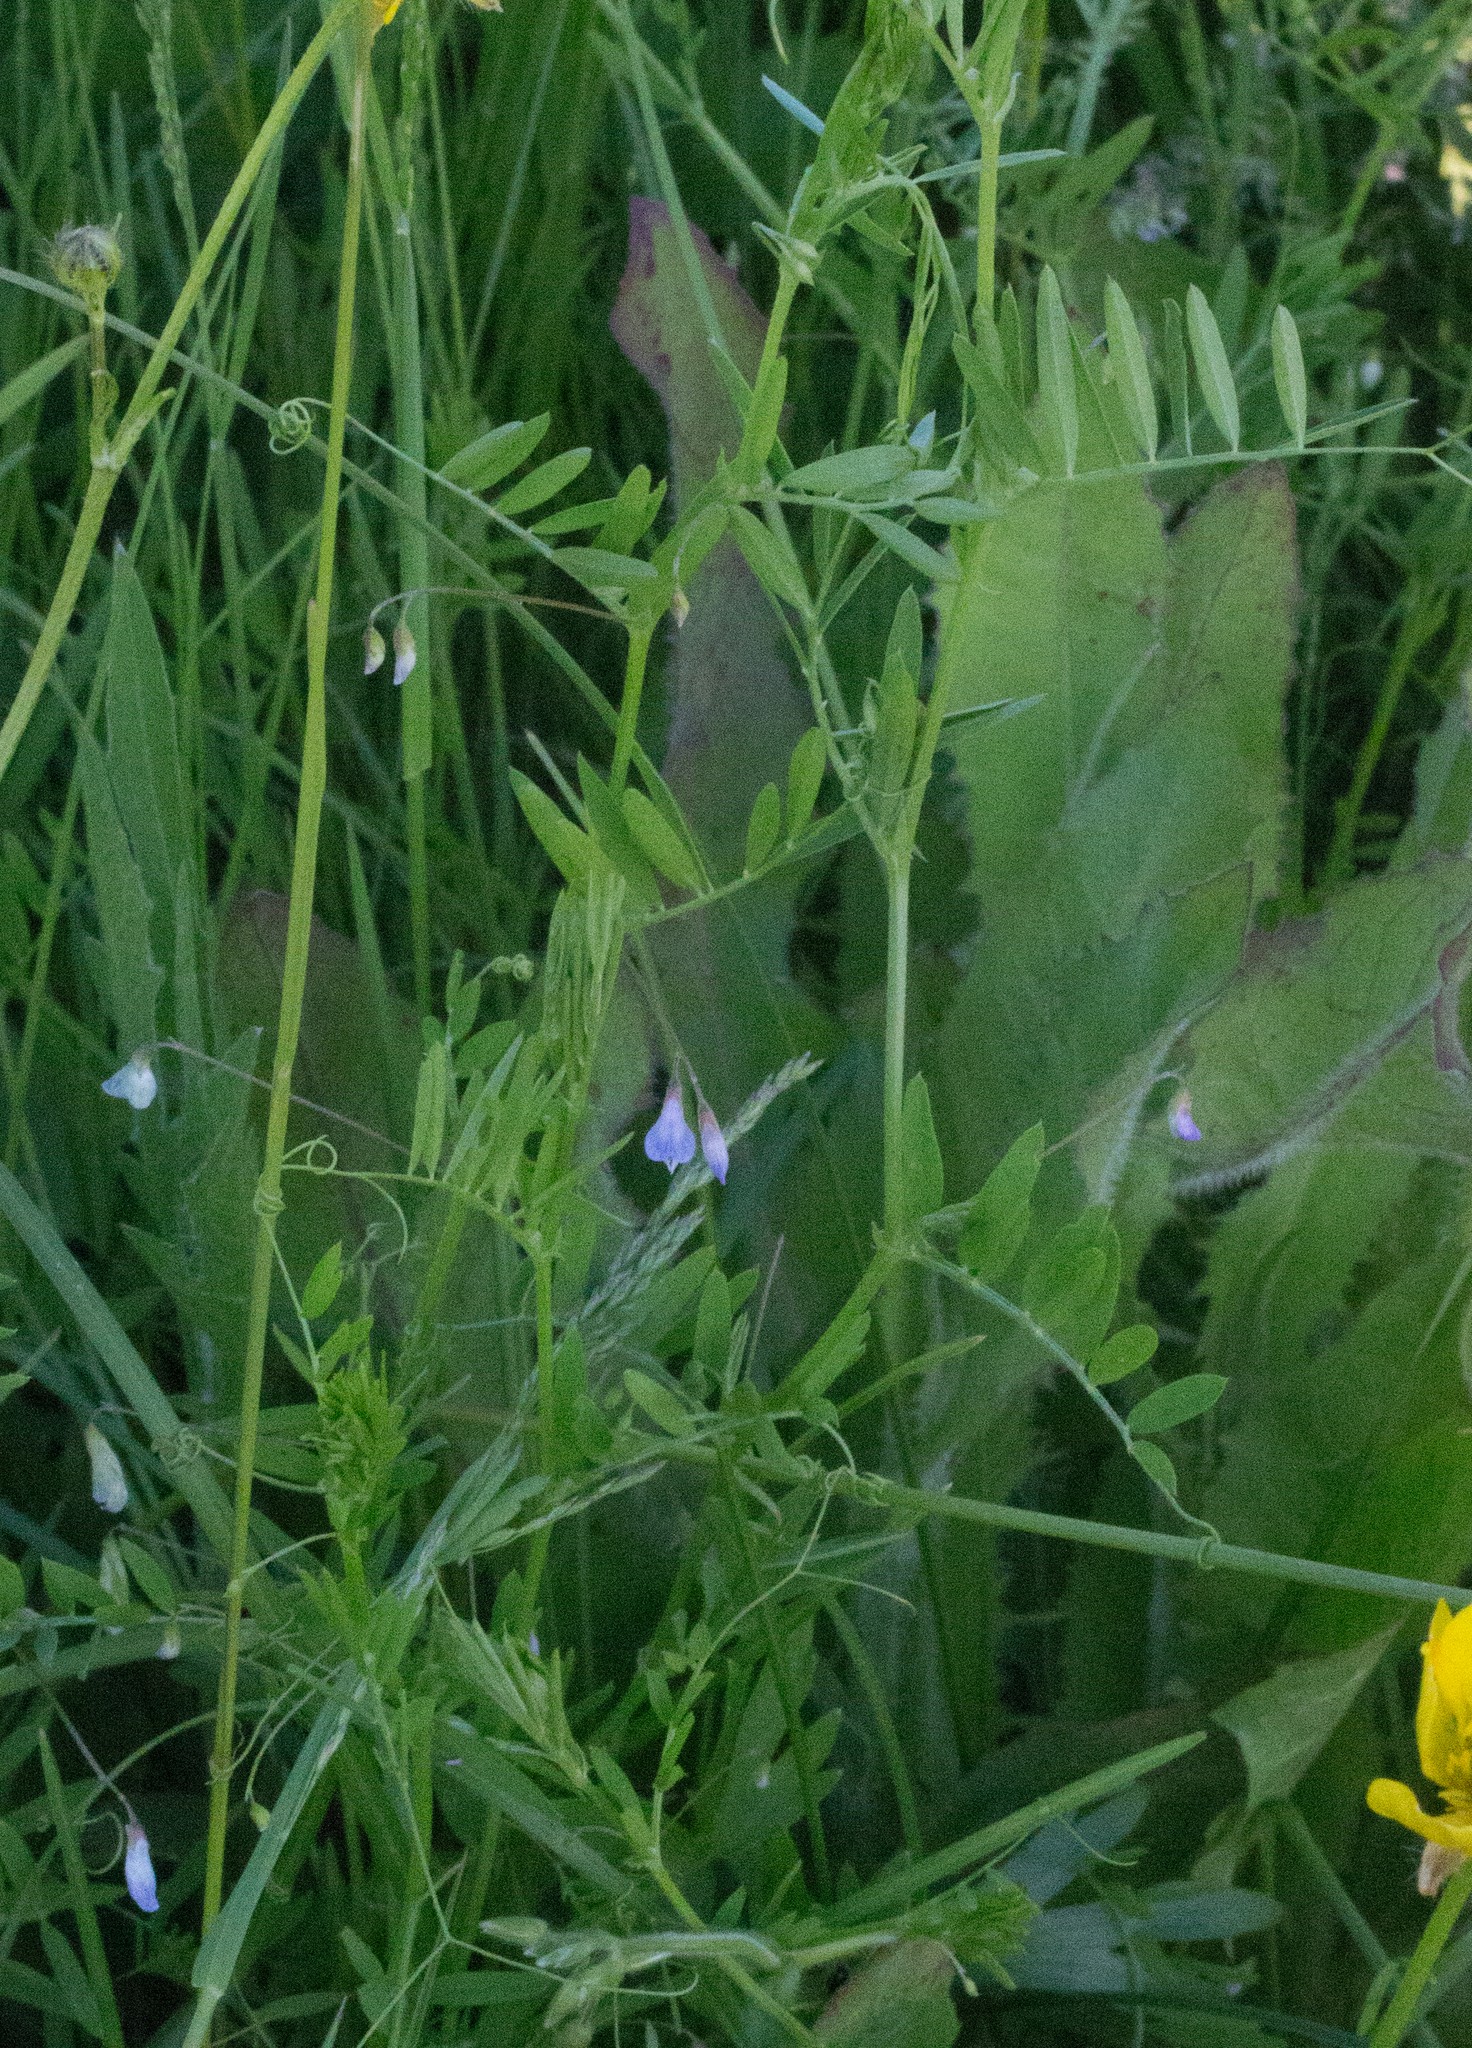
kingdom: Plantae
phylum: Tracheophyta
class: Magnoliopsida
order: Fabales
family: Fabaceae
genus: Vicia
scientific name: Vicia tetrasperma
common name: Smooth tare
